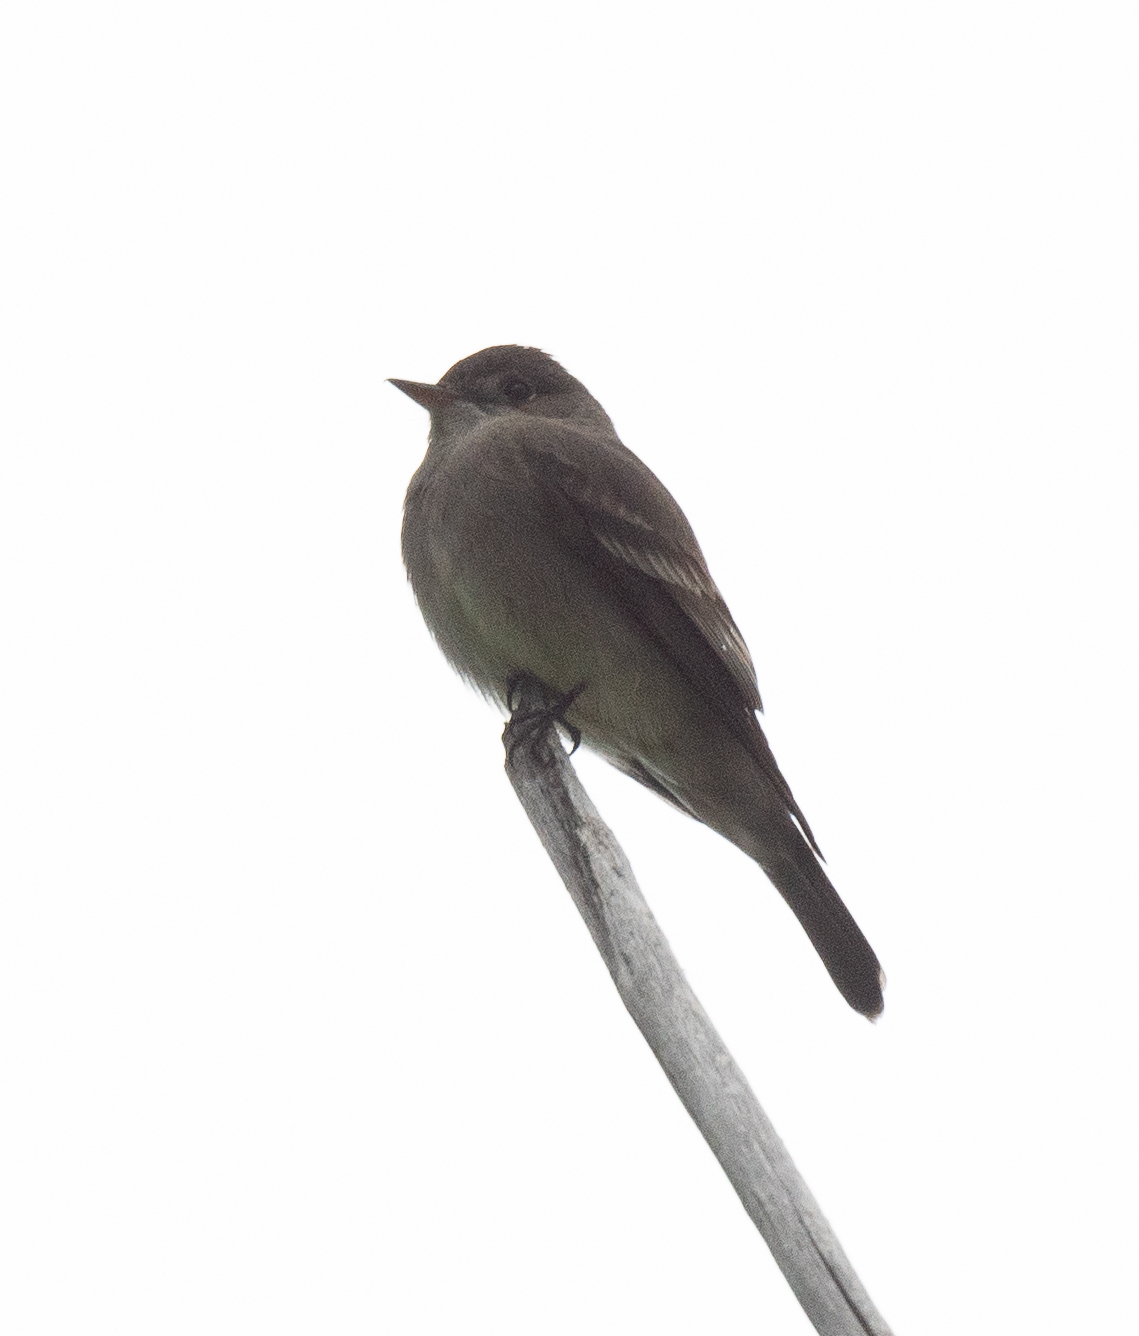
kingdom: Animalia
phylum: Chordata
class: Aves
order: Passeriformes
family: Tyrannidae
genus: Contopus
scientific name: Contopus sordidulus
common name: Western wood-pewee
